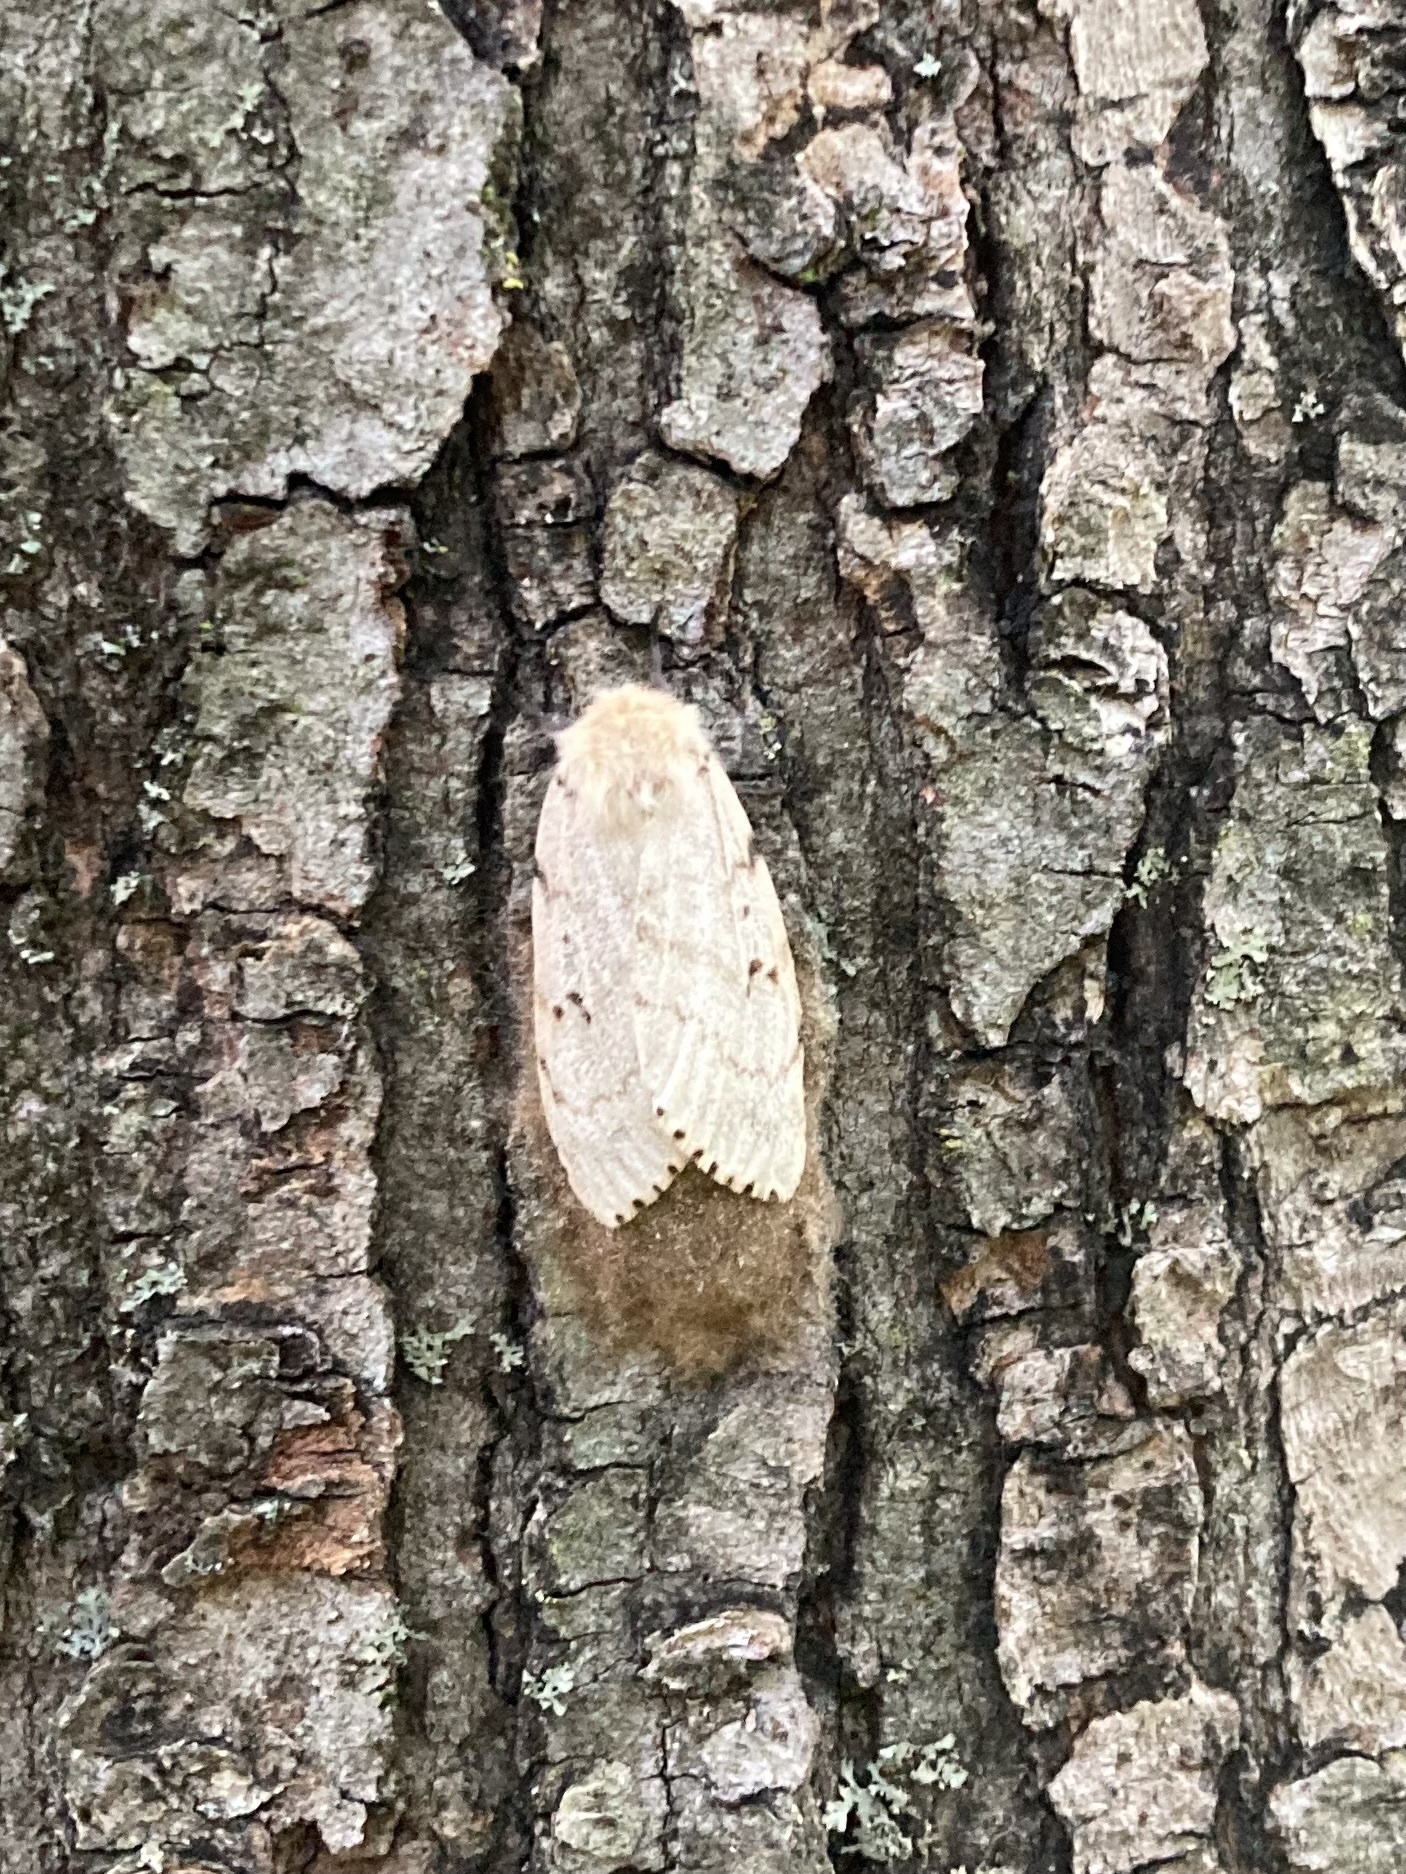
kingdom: Animalia
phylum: Arthropoda
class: Insecta
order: Lepidoptera
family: Erebidae
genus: Lymantria
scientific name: Lymantria dispar
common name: Gypsy moth
